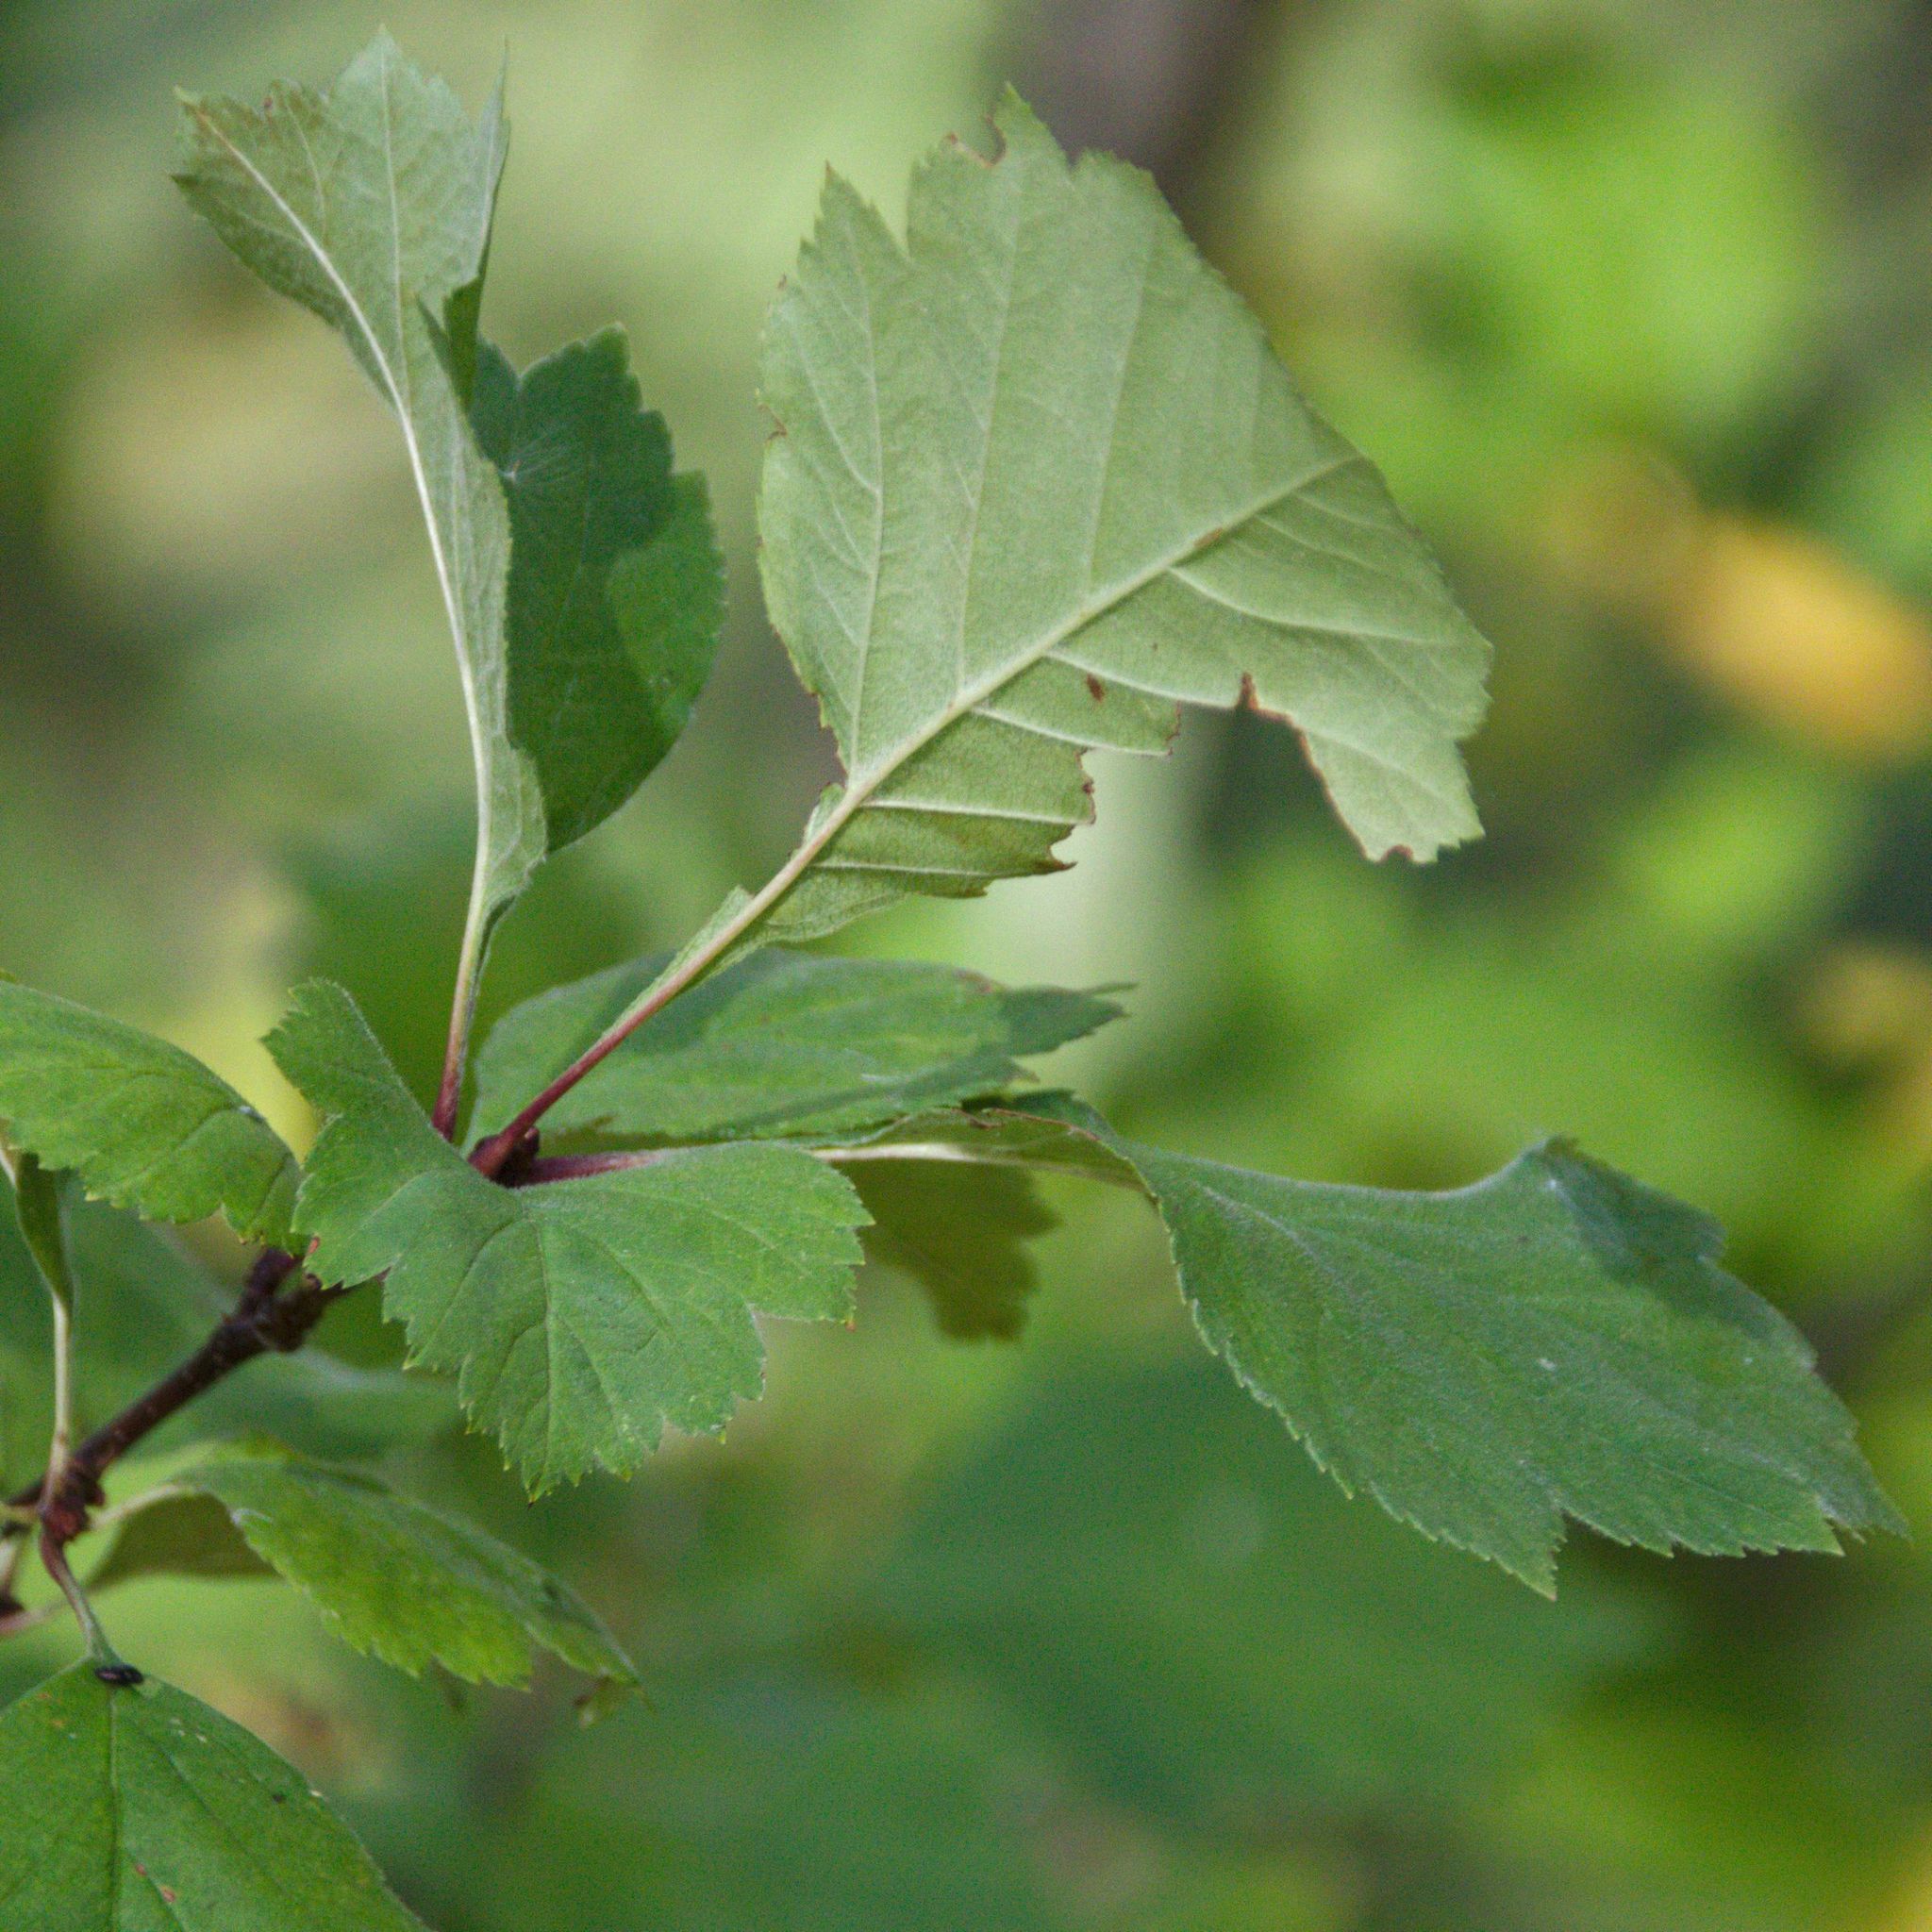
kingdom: Plantae
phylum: Tracheophyta
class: Magnoliopsida
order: Rosales
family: Rosaceae
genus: Crataegus
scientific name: Crataegus sanguinea
